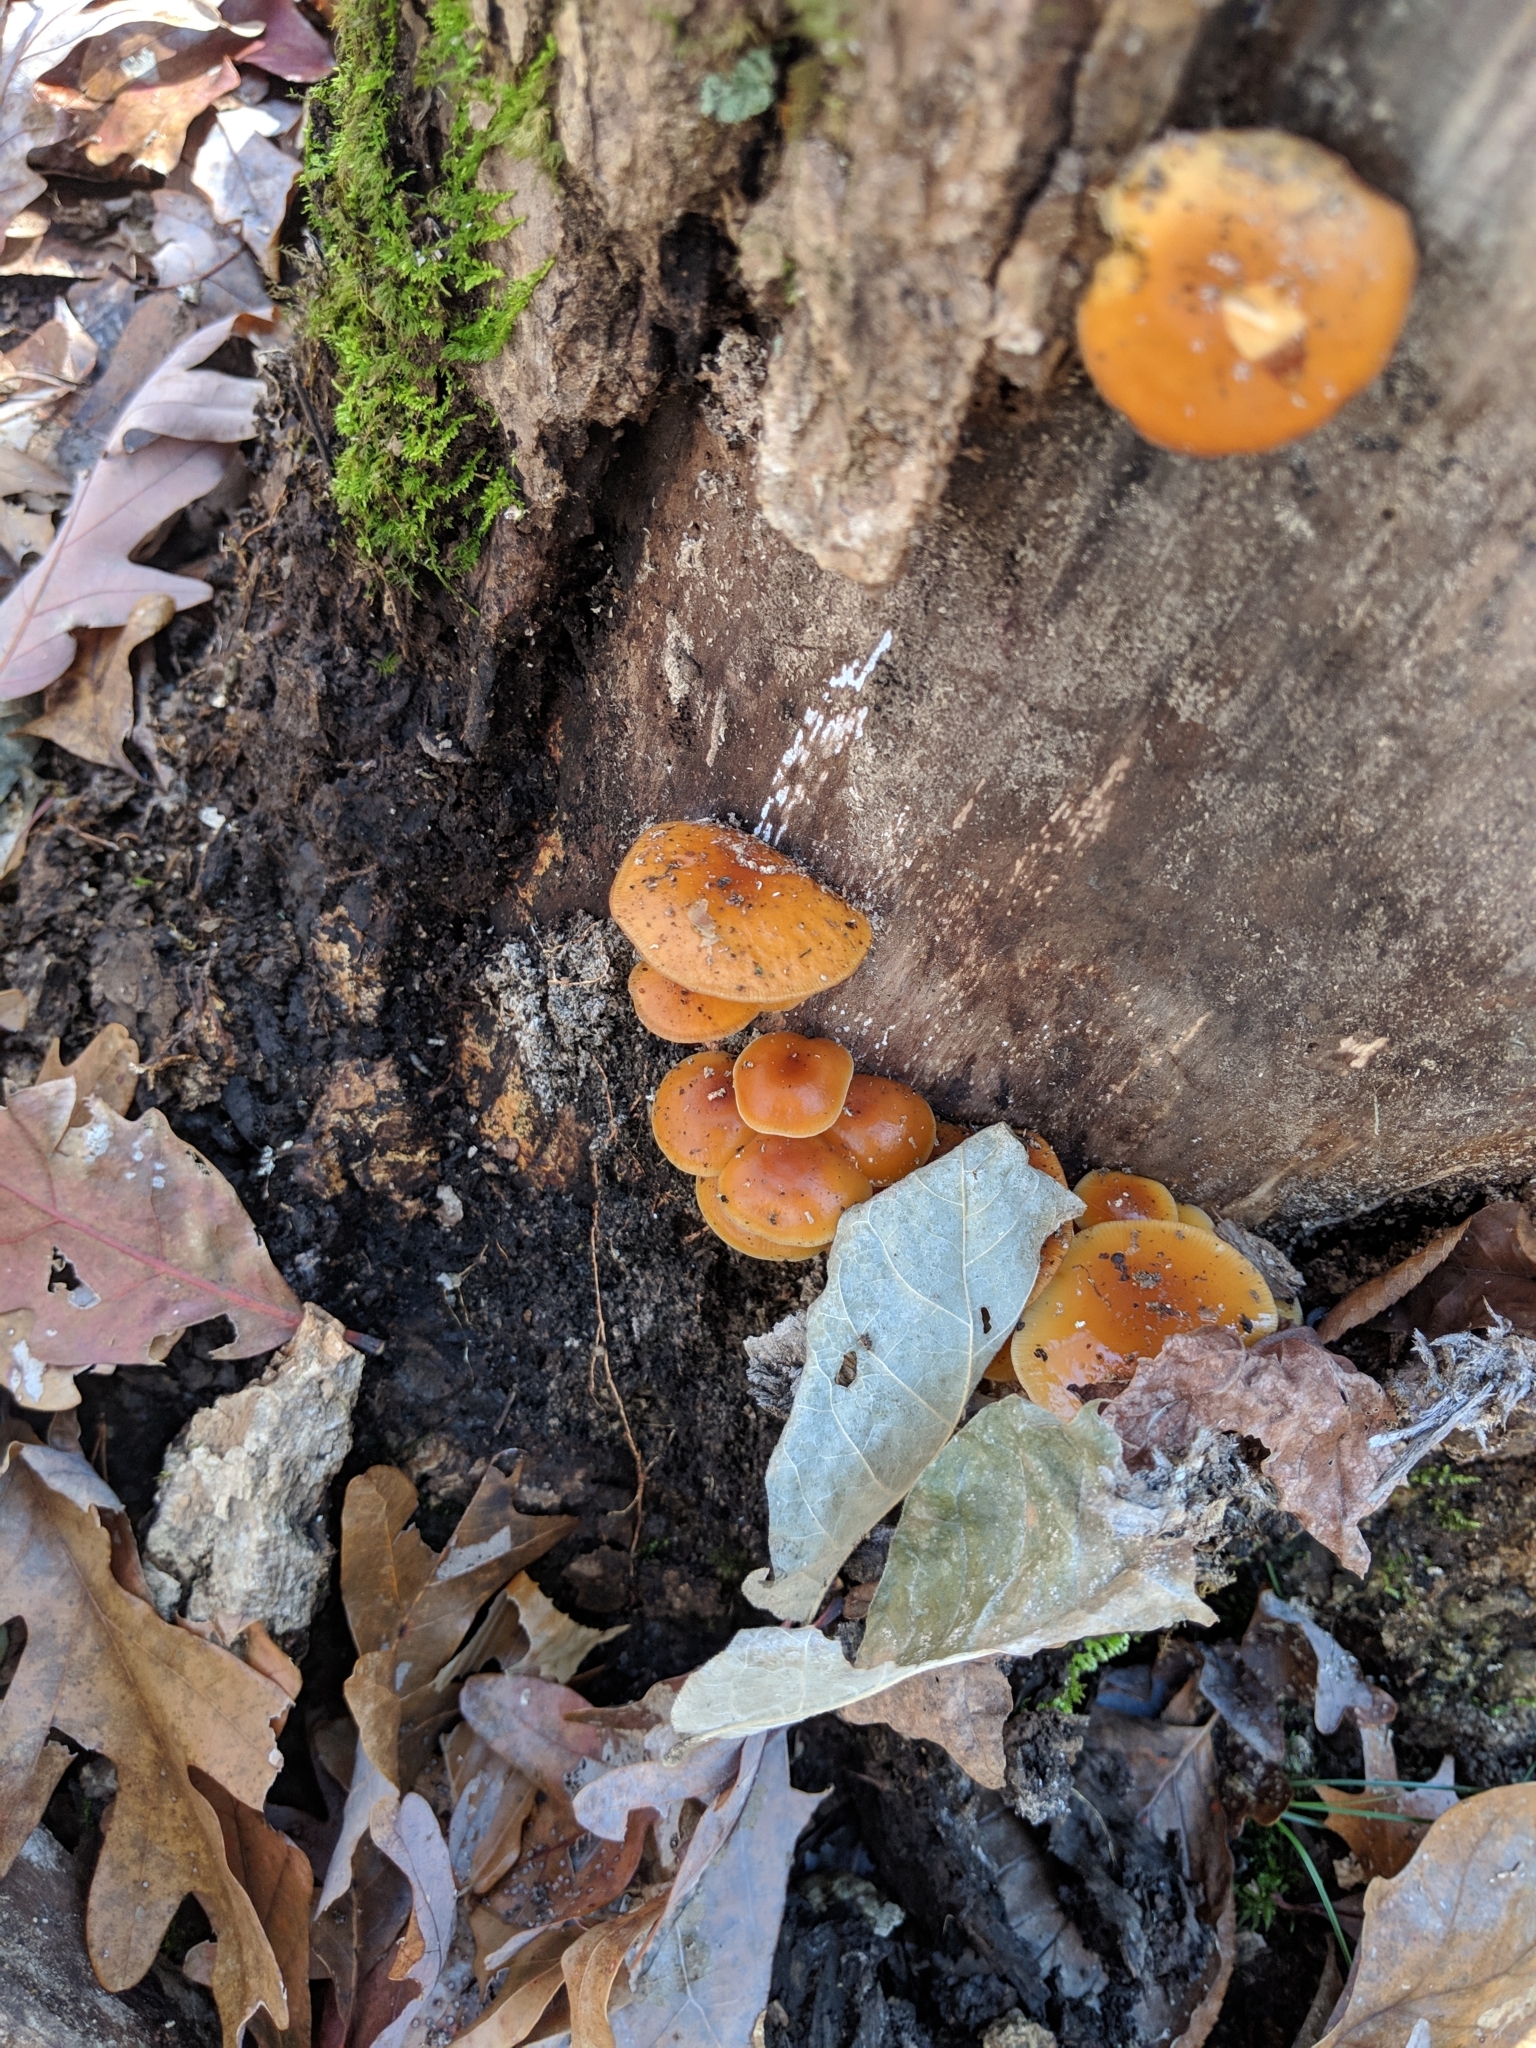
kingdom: Fungi
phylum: Basidiomycota
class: Agaricomycetes
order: Agaricales
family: Physalacriaceae
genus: Flammulina
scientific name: Flammulina velutipes
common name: Velvet shank
